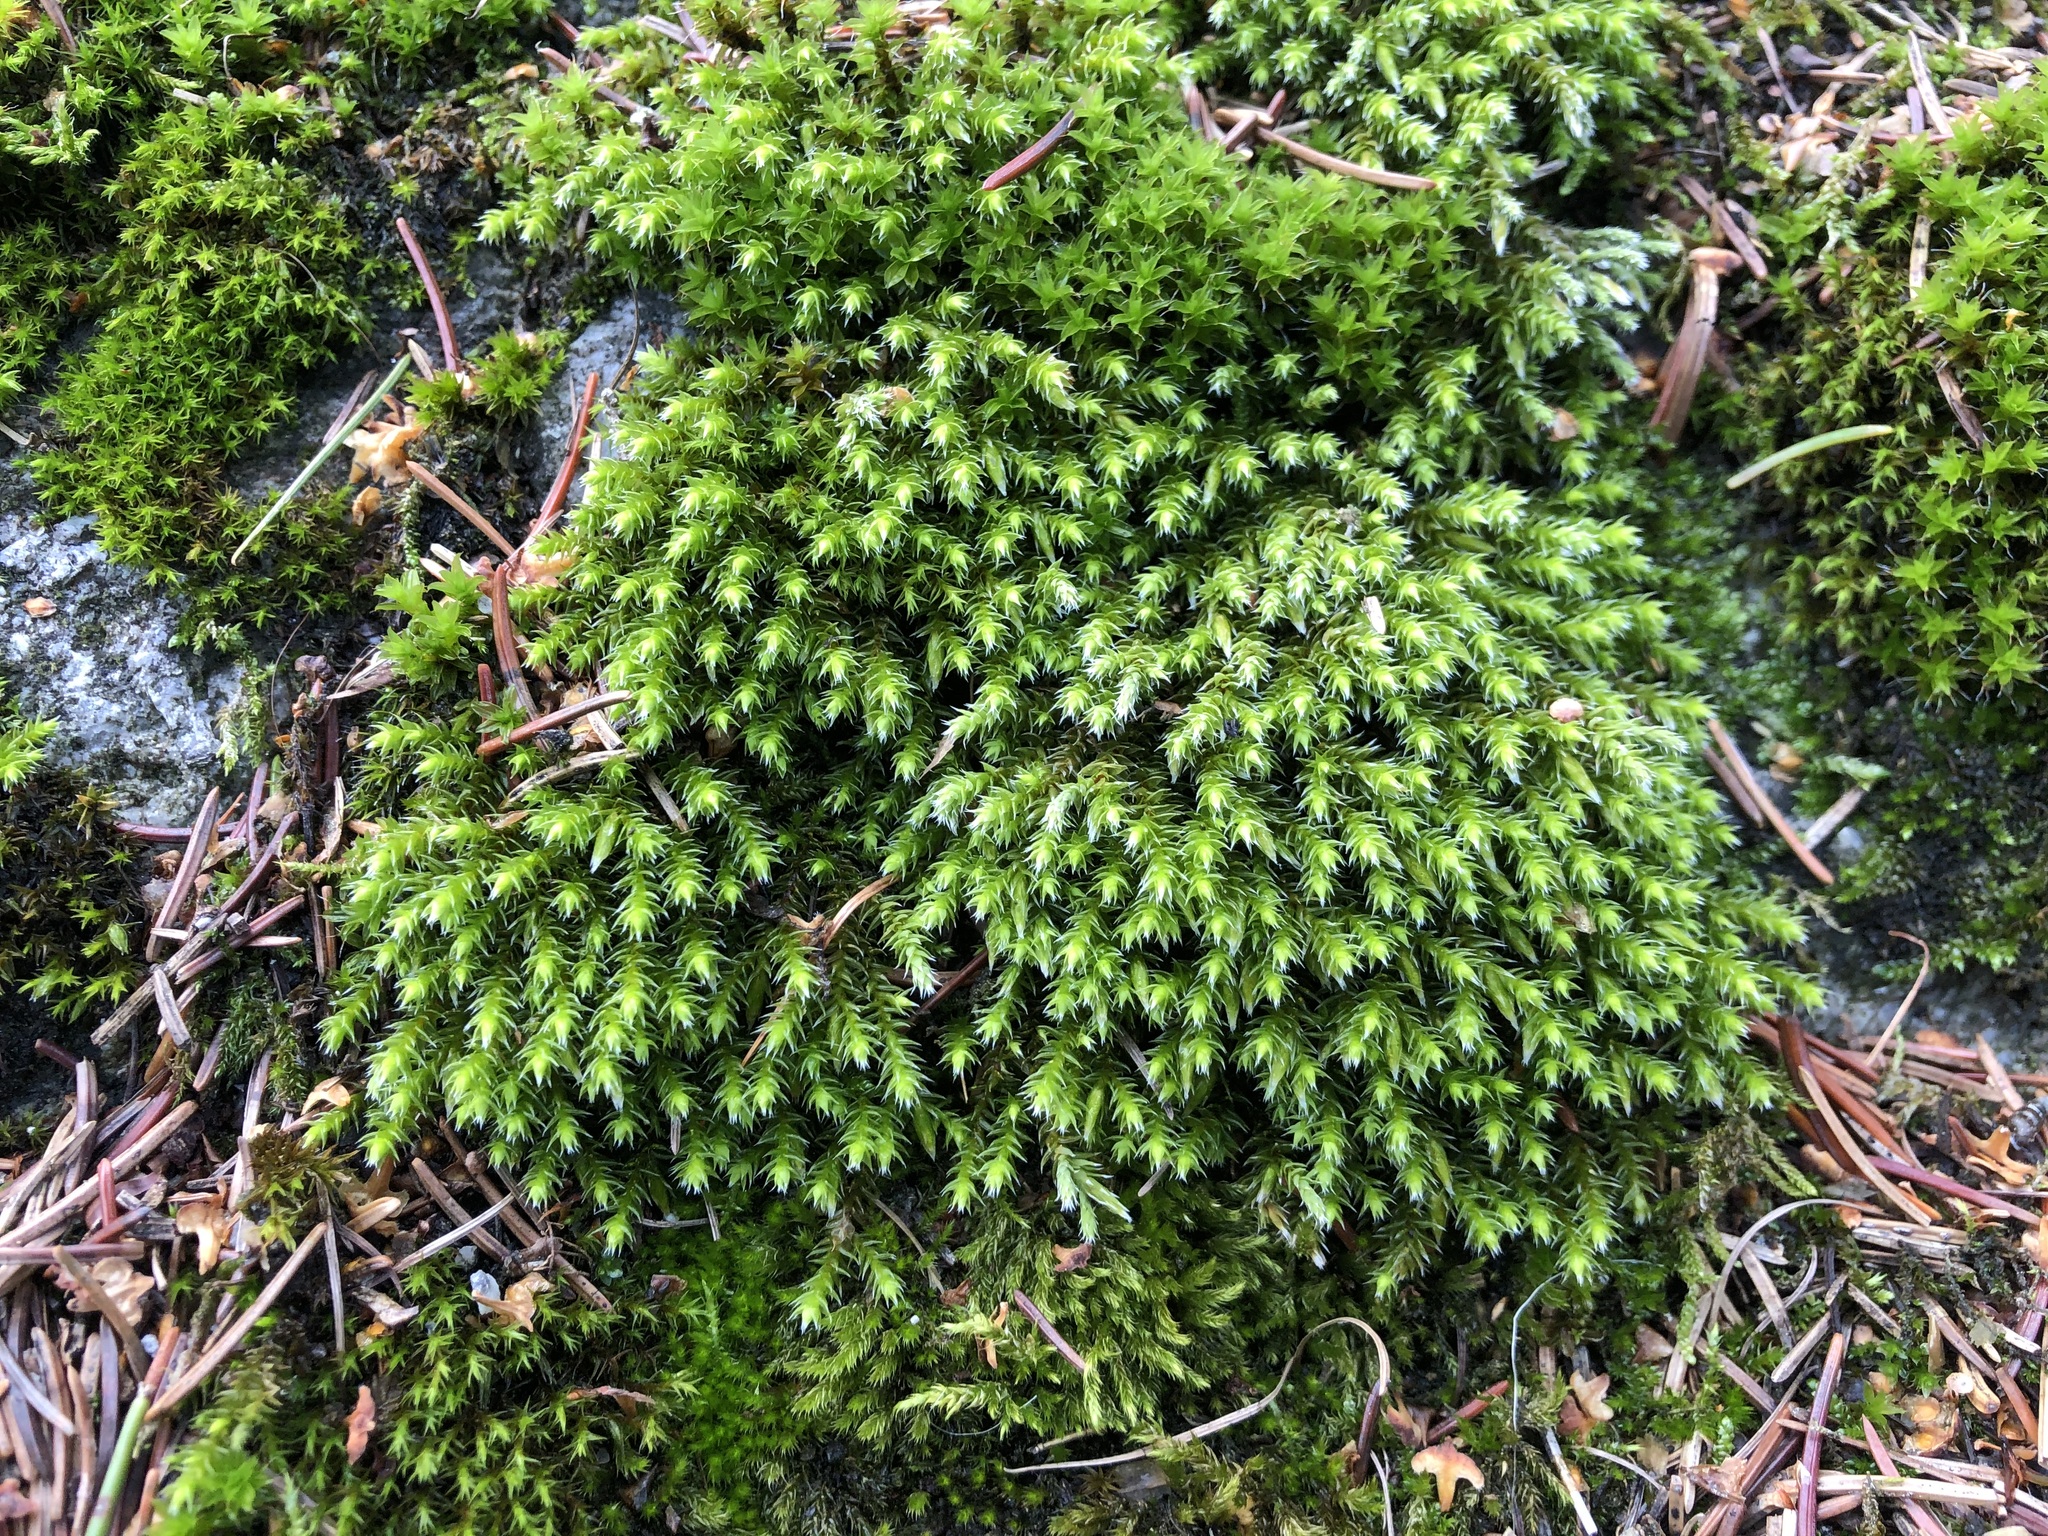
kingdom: Plantae
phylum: Bryophyta
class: Bryopsida
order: Hedwigiales
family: Hedwigiaceae
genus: Hedwigia
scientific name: Hedwigia ciliata
